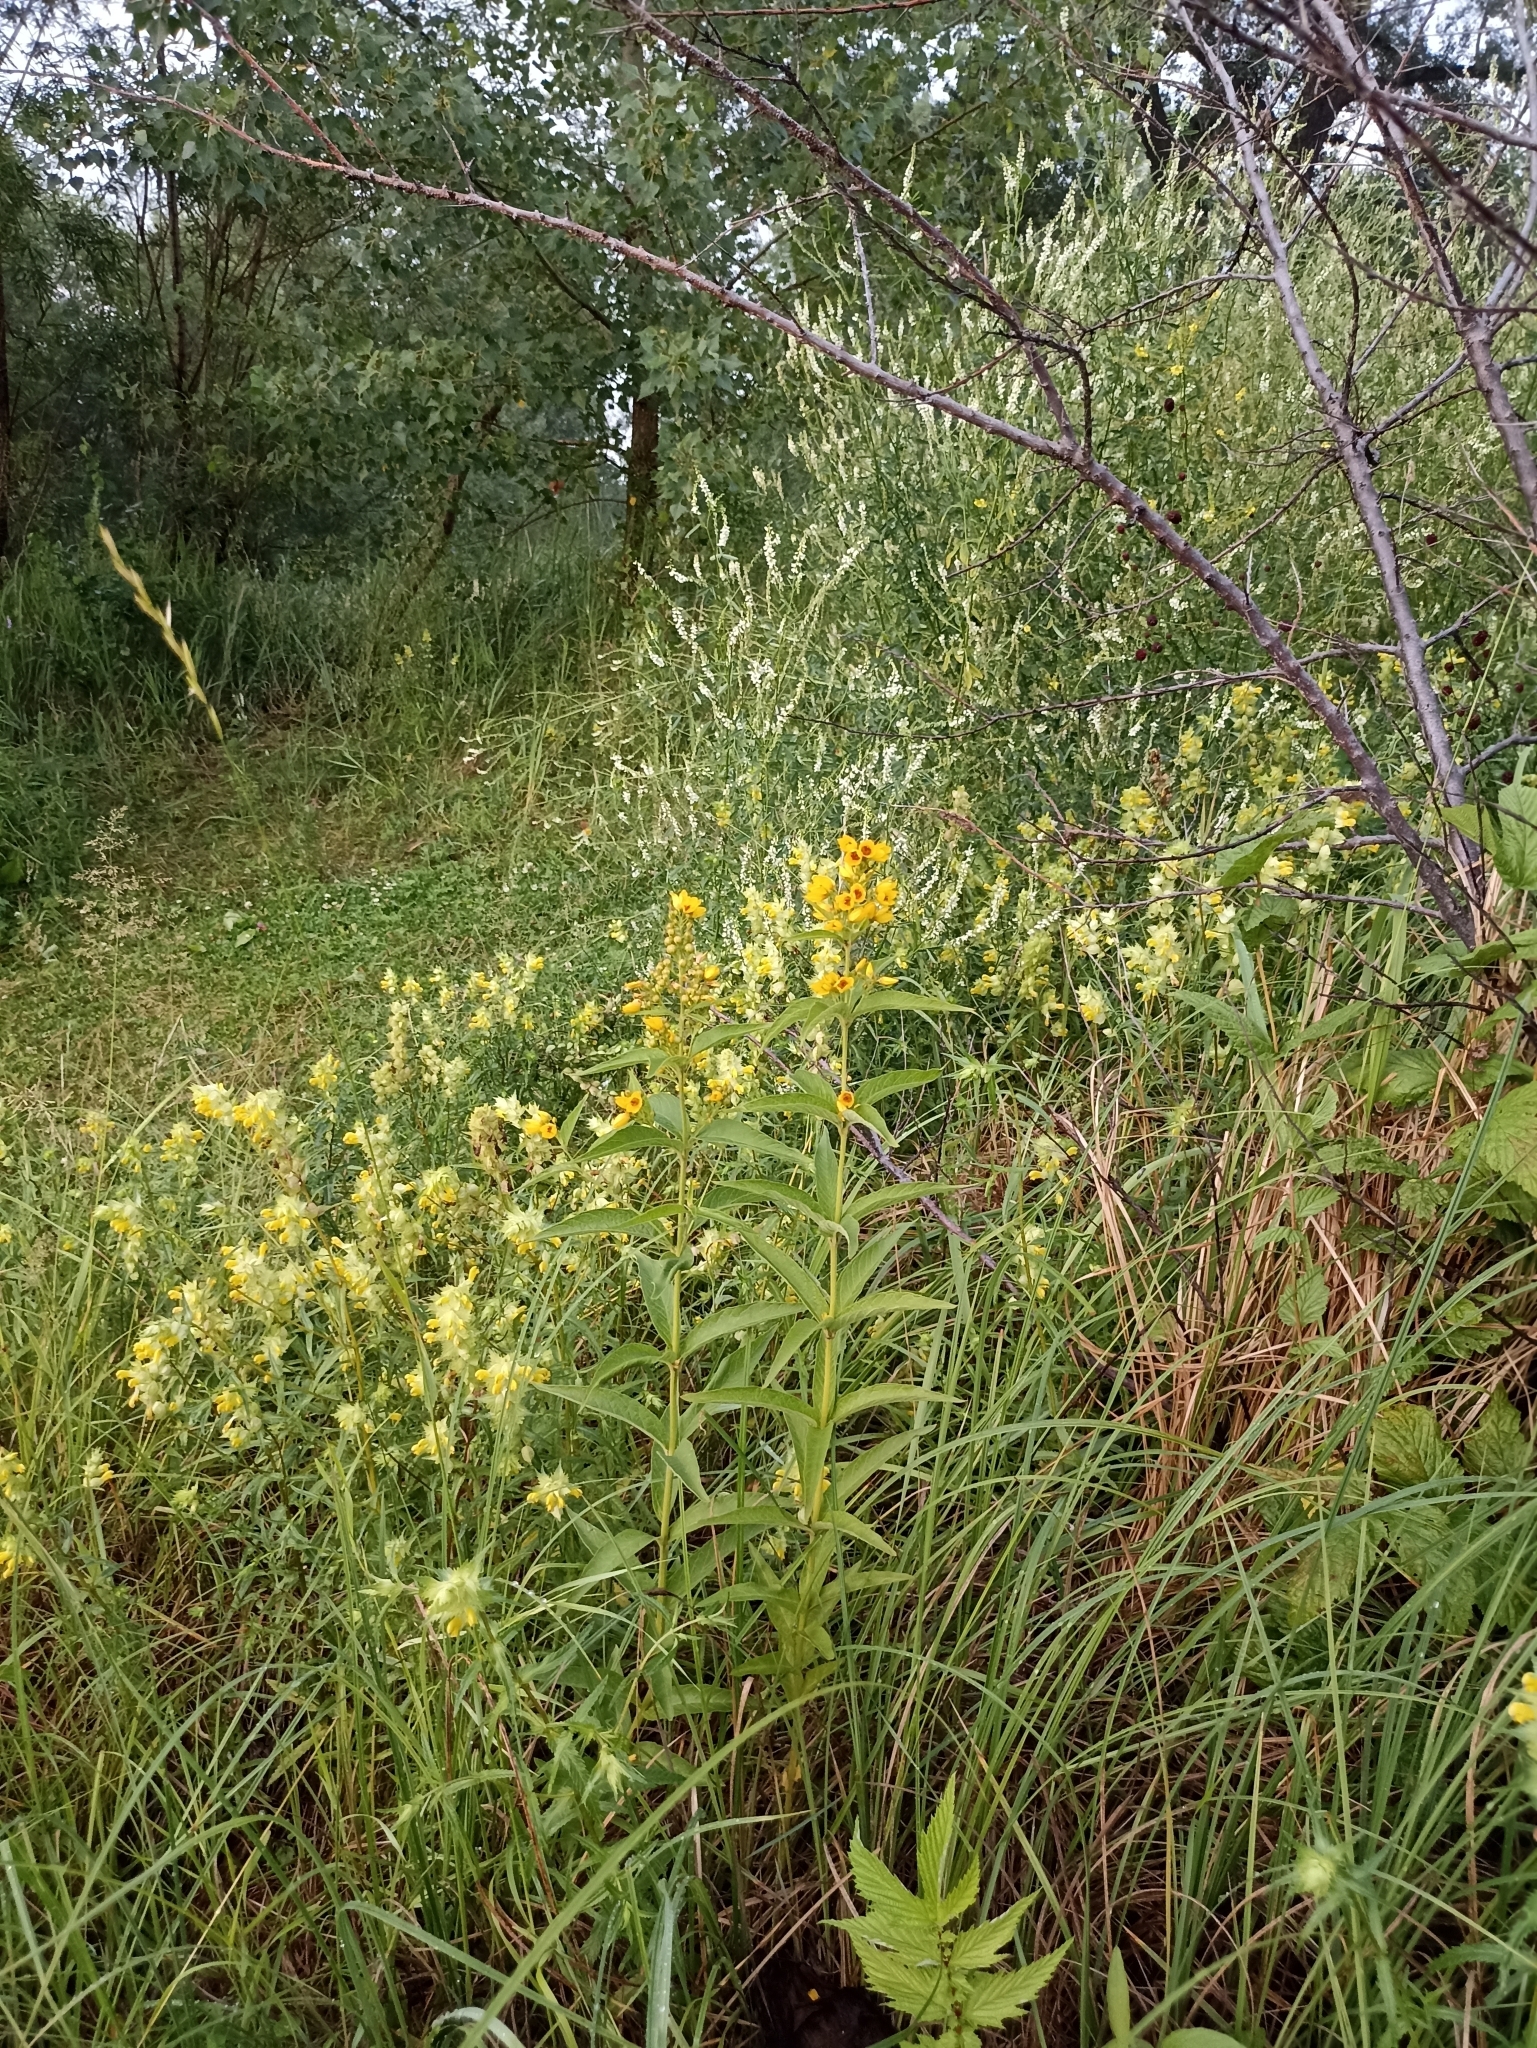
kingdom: Plantae
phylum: Tracheophyta
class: Magnoliopsida
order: Ericales
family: Primulaceae
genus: Lysimachia
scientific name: Lysimachia vulgaris
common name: Yellow loosestrife
